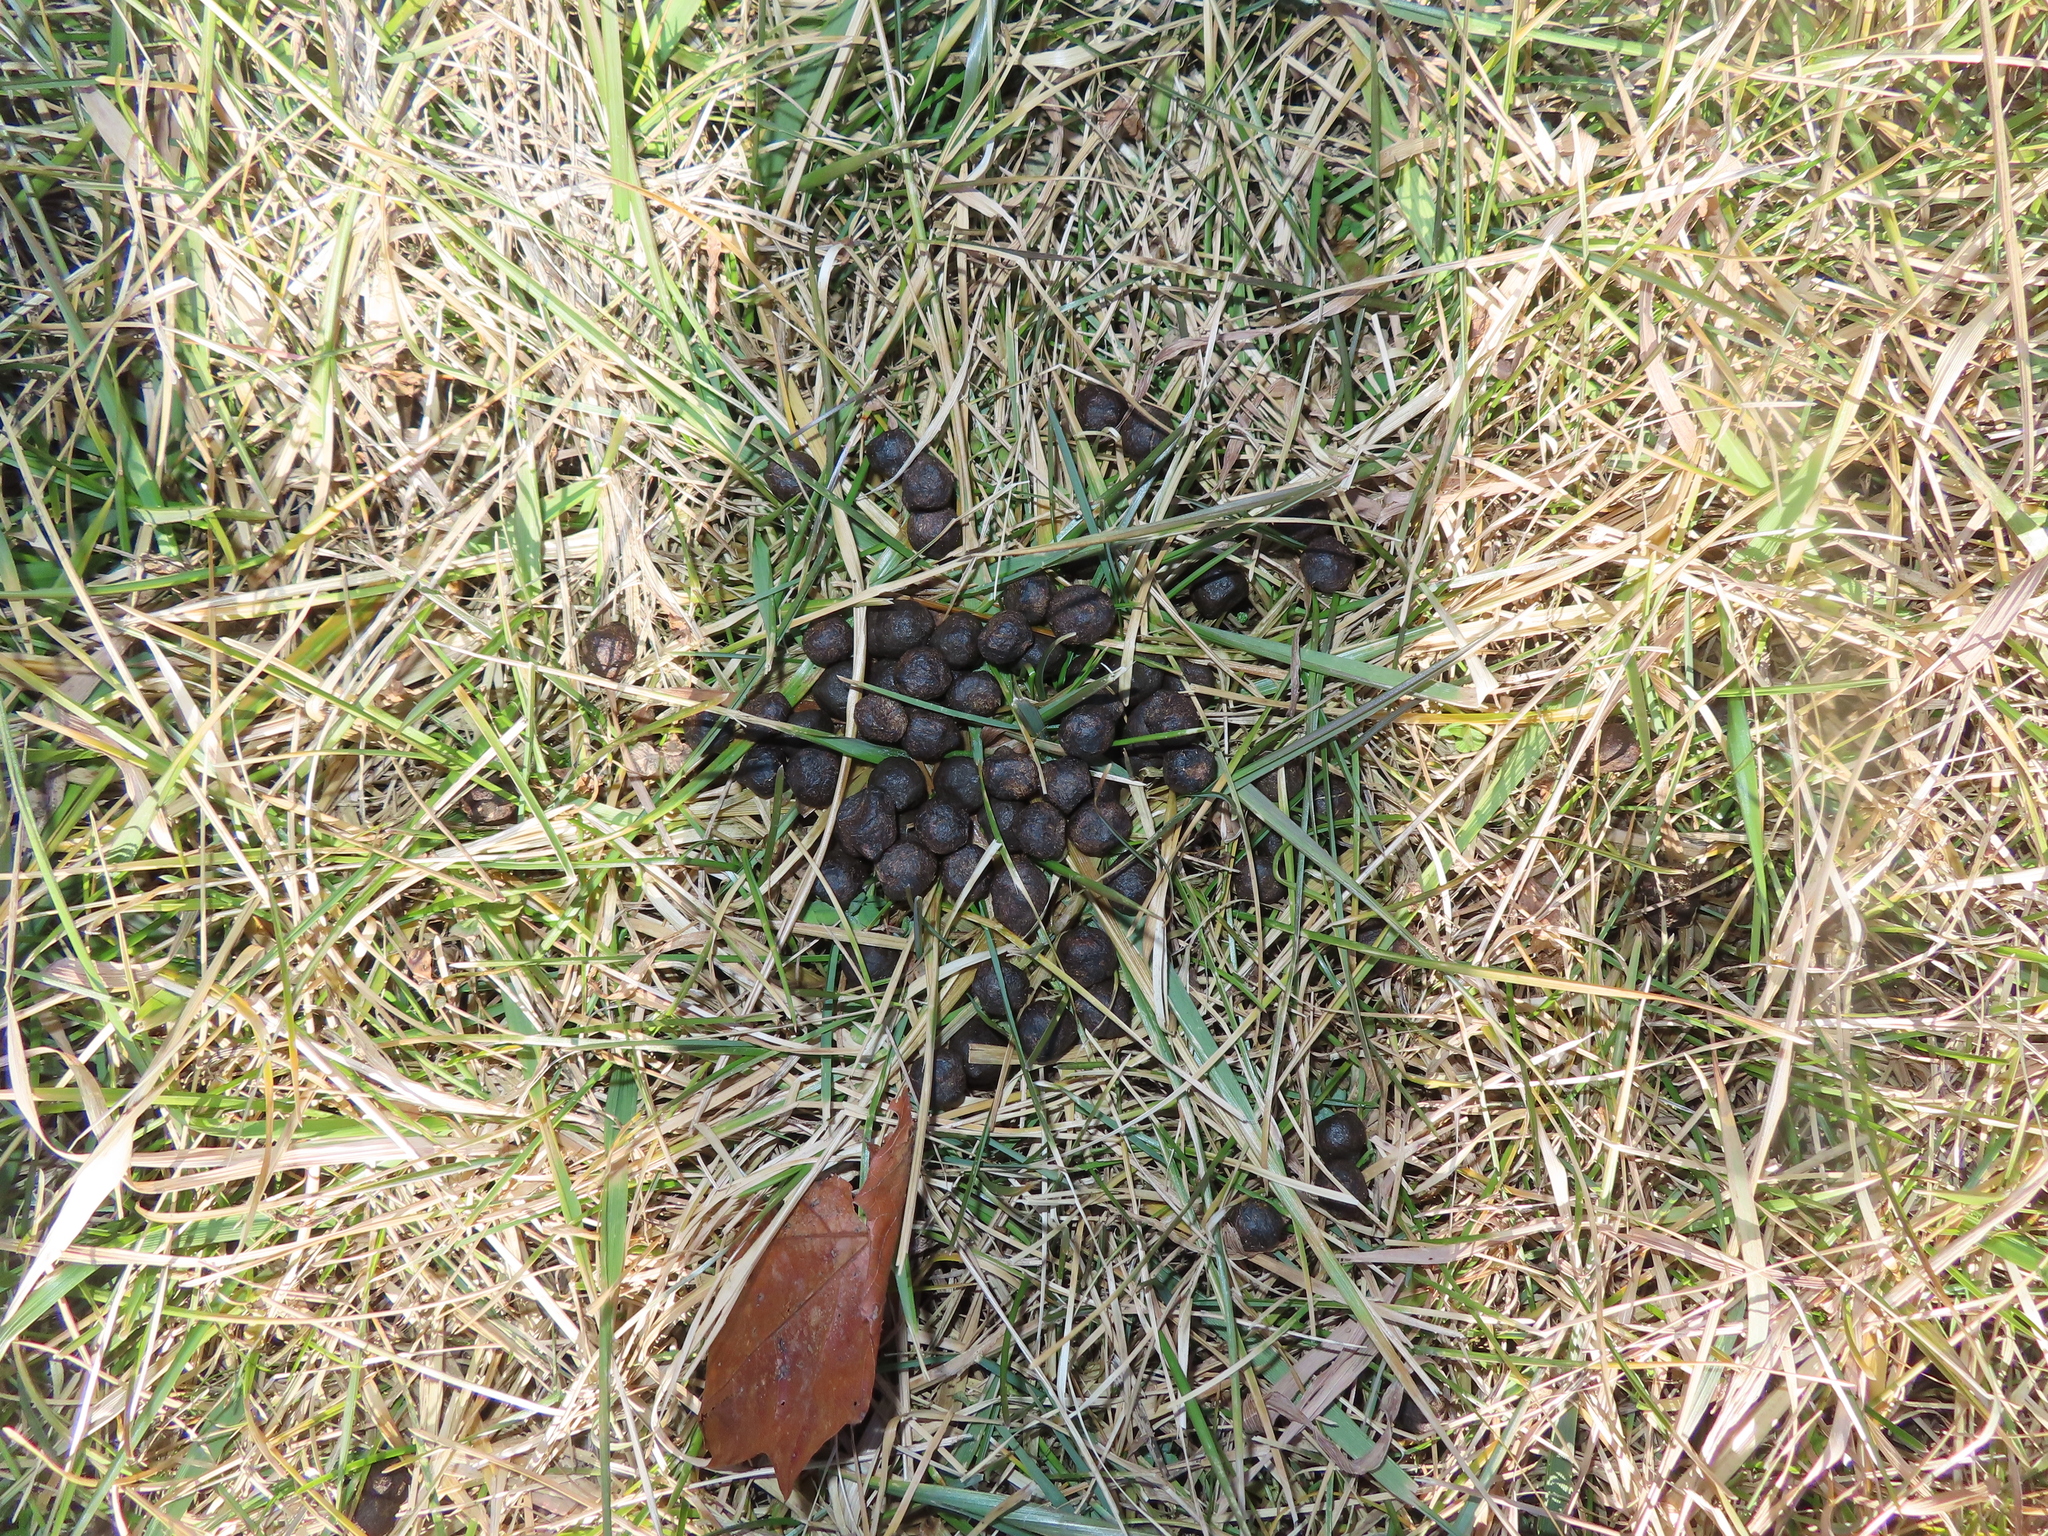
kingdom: Animalia
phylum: Chordata
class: Mammalia
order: Artiodactyla
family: Cervidae
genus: Odocoileus
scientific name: Odocoileus virginianus
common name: White-tailed deer
